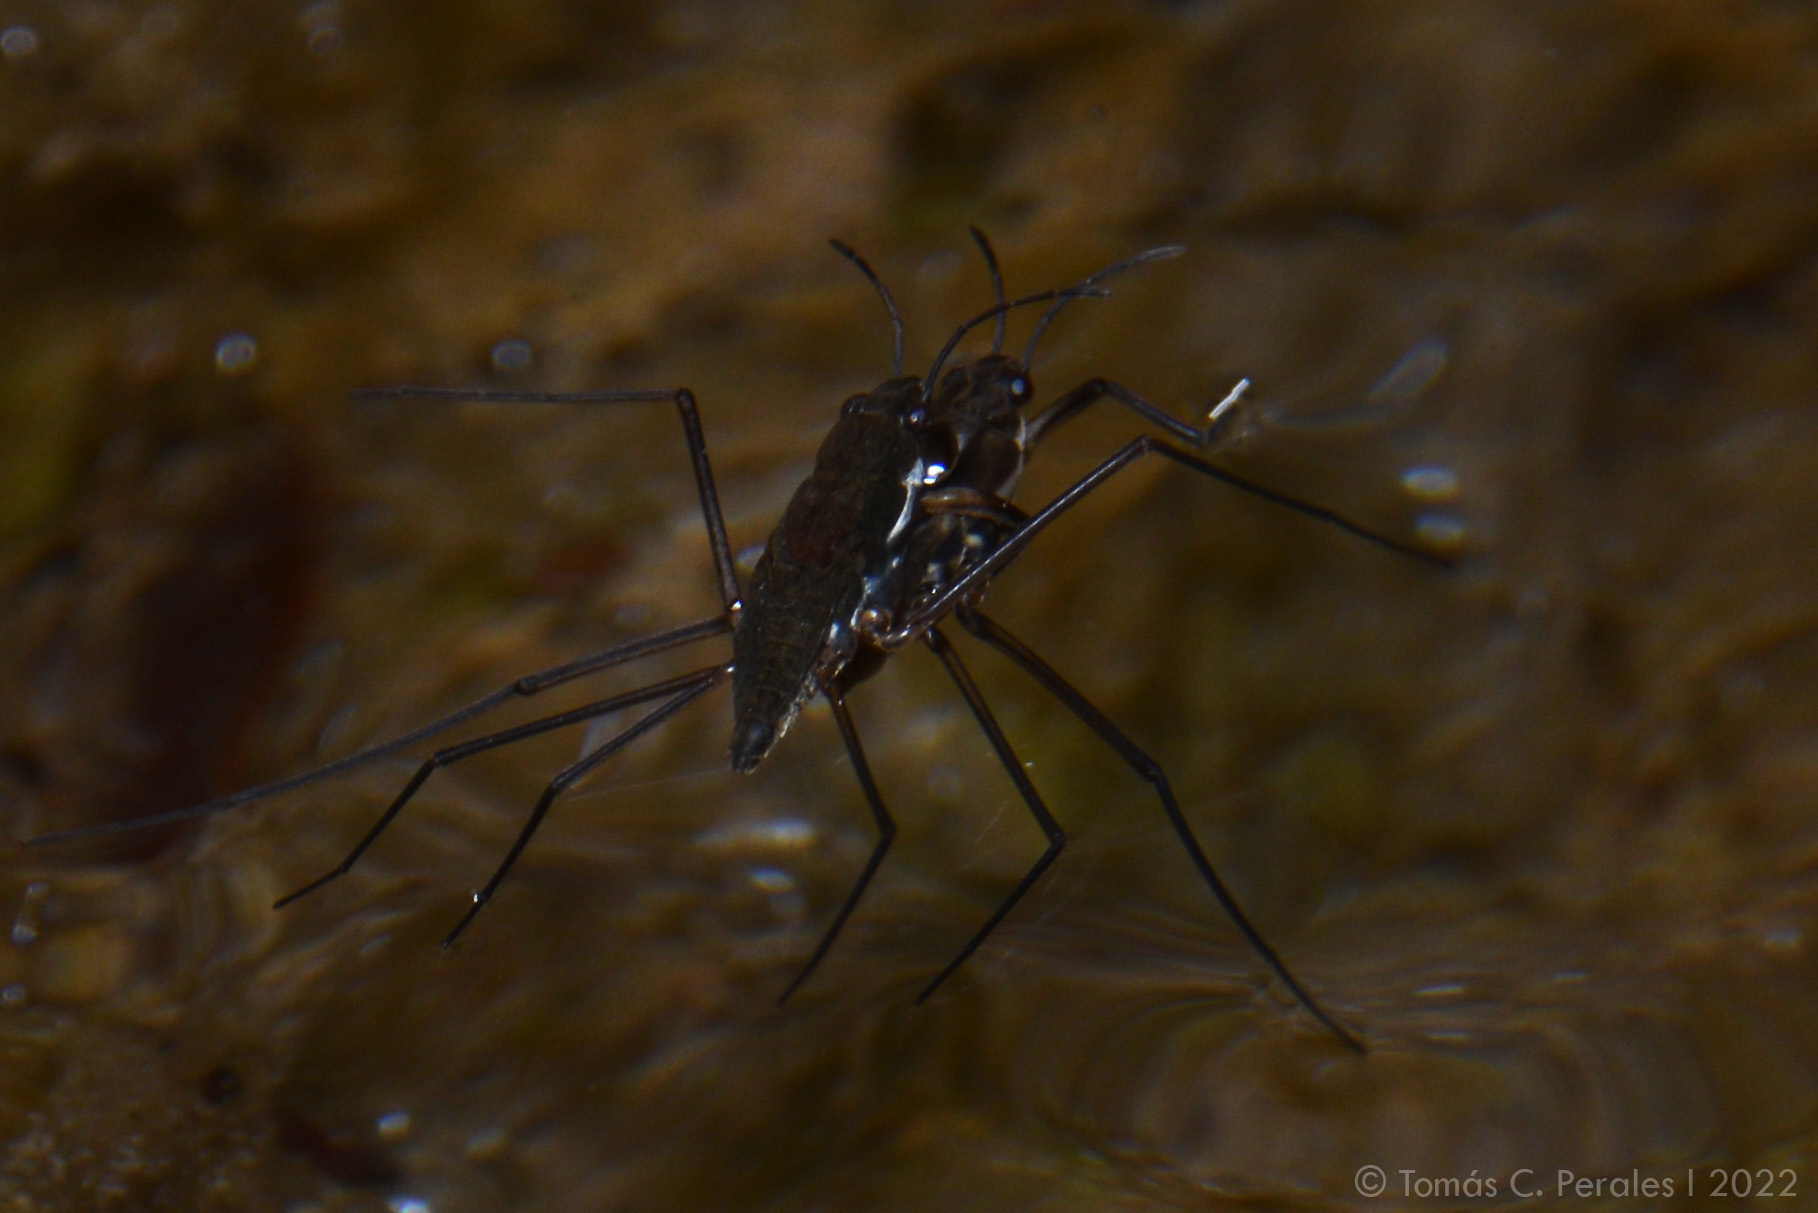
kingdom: Animalia
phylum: Arthropoda
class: Insecta
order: Hemiptera
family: Gerridae
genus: Eurygerris
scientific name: Eurygerris fuscinervis
